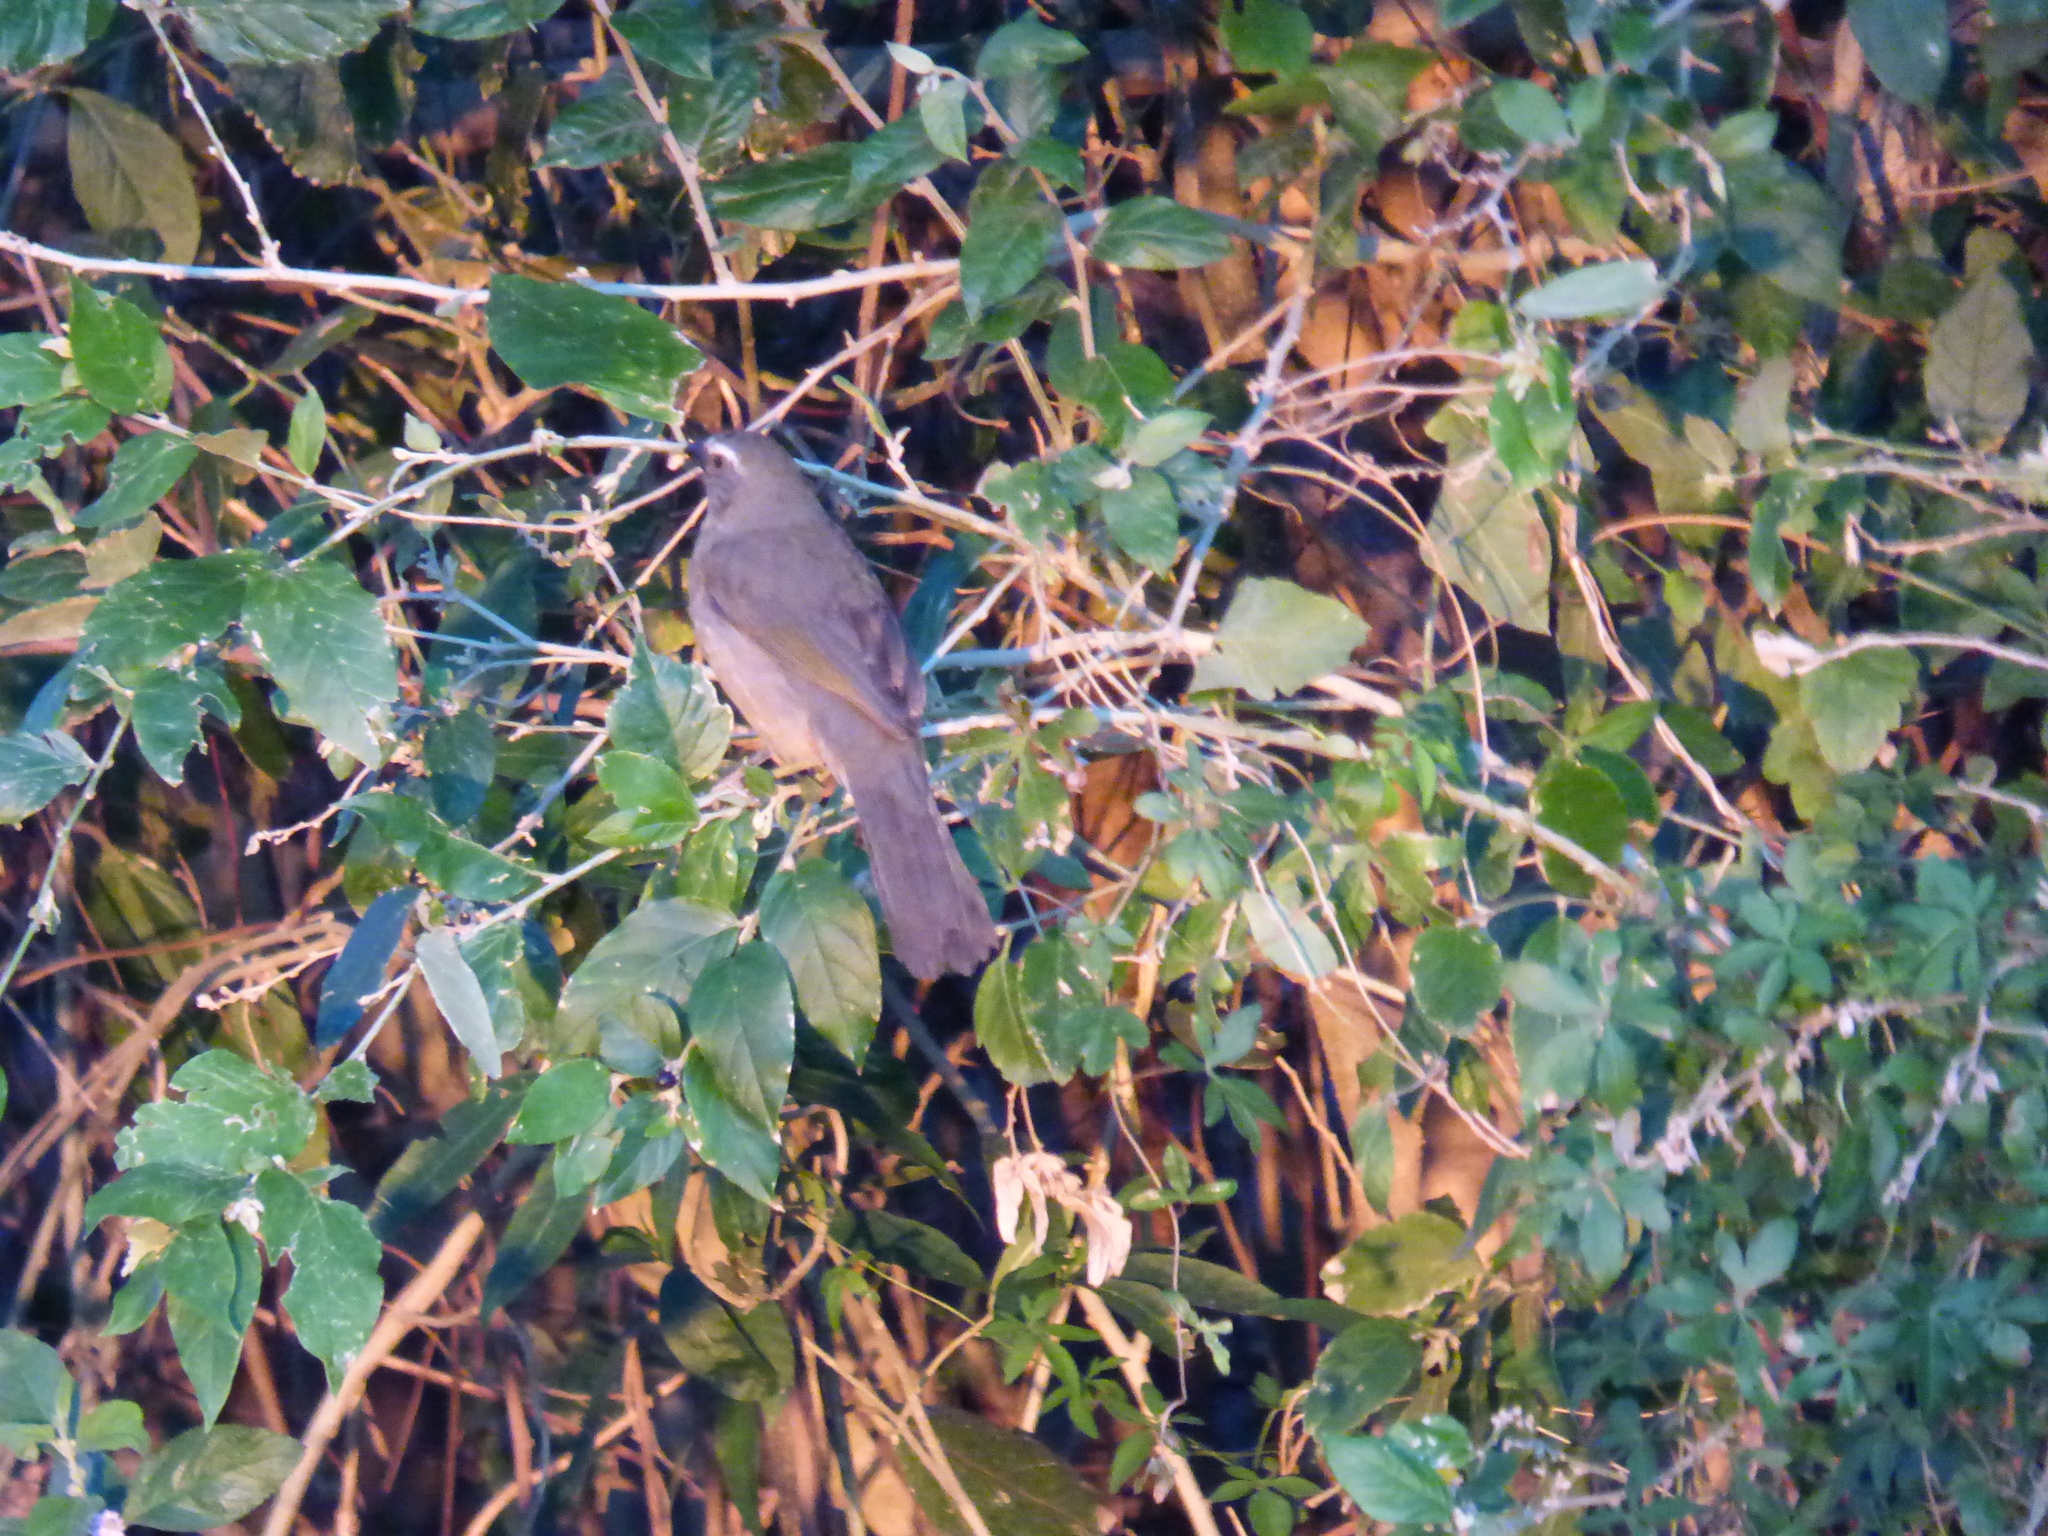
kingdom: Animalia
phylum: Chordata
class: Aves
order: Passeriformes
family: Thraupidae
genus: Saltator
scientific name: Saltator coerulescens
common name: Grayish saltator
